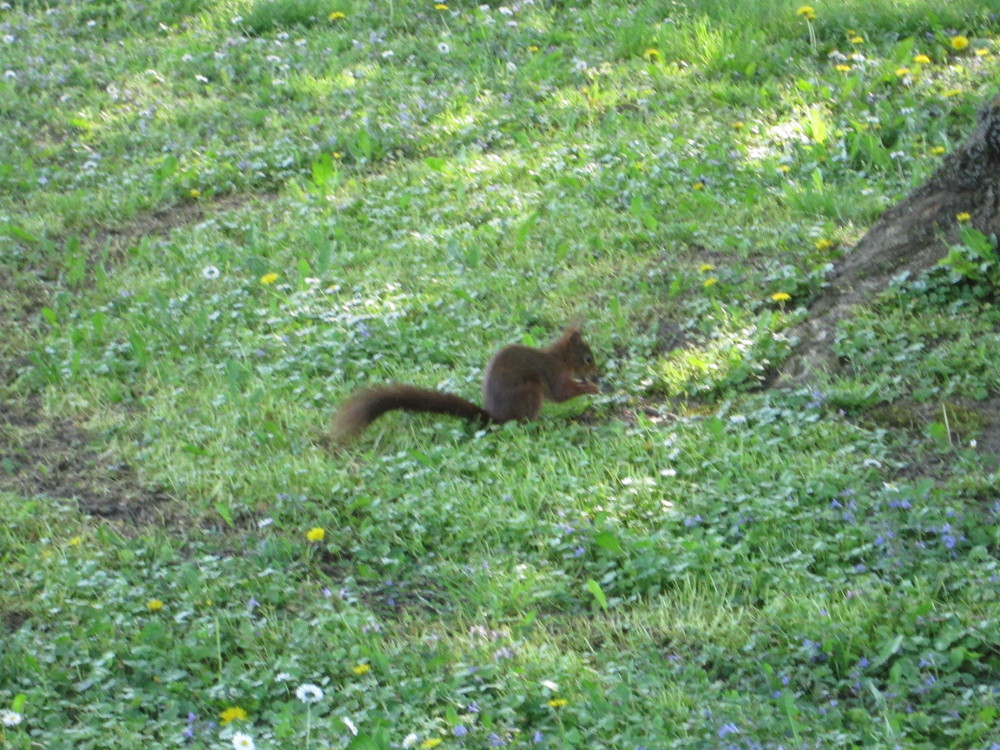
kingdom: Animalia
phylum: Chordata
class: Mammalia
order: Rodentia
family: Sciuridae
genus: Sciurus
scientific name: Sciurus vulgaris
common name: Eurasian red squirrel
